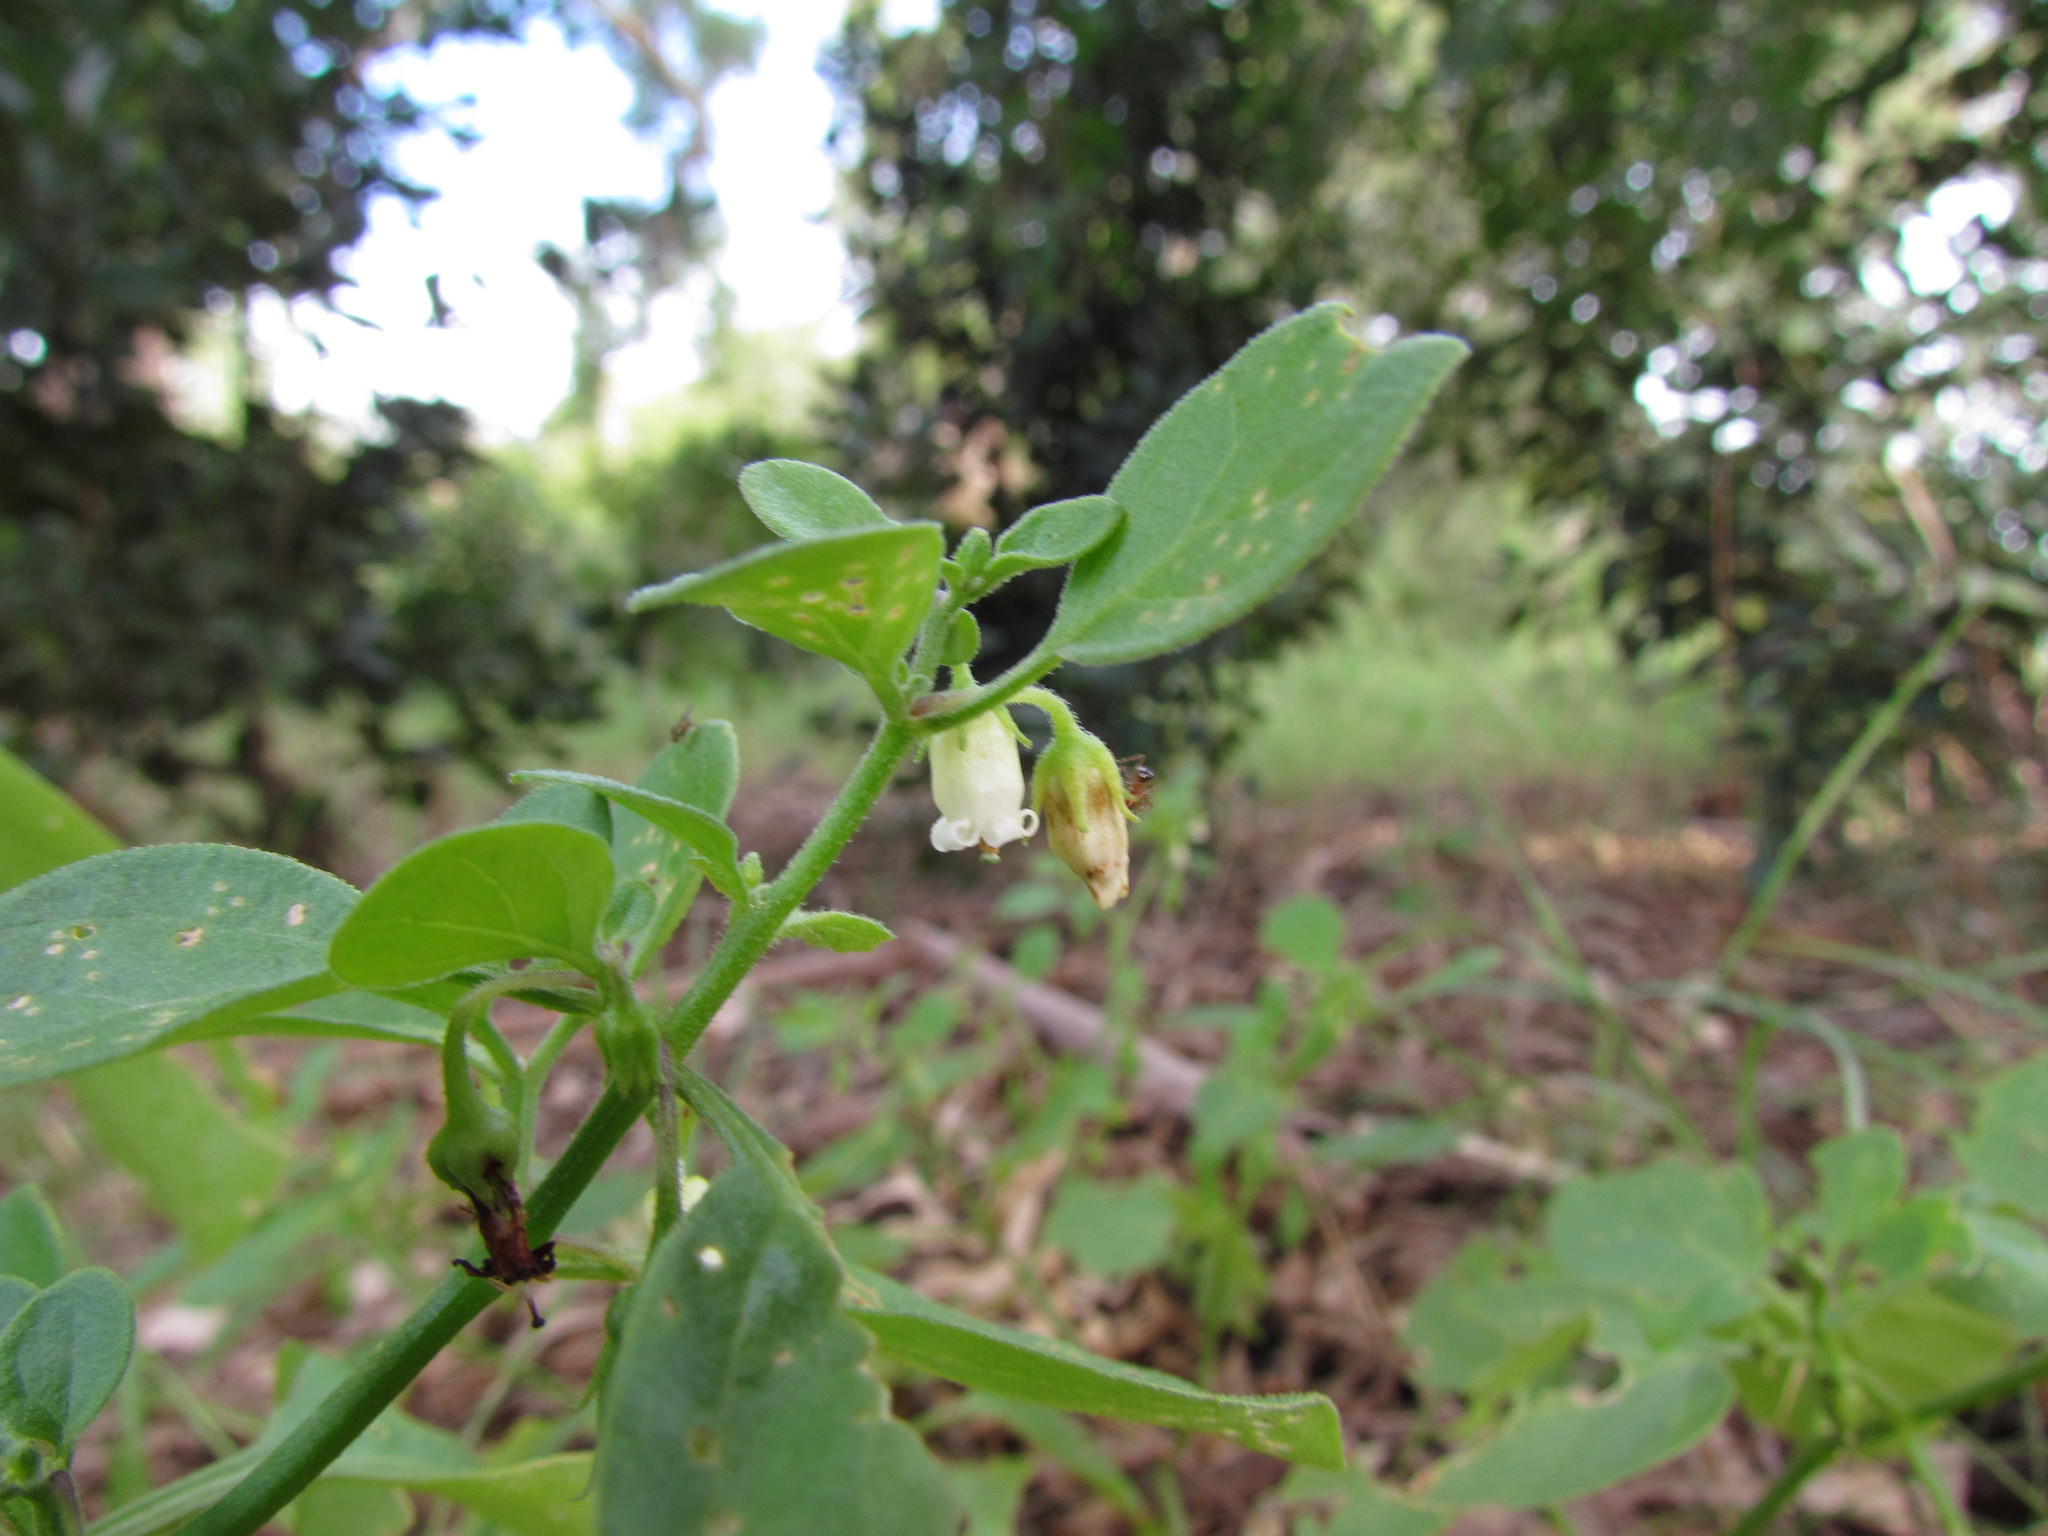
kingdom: Plantae
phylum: Tracheophyta
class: Magnoliopsida
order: Solanales
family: Solanaceae
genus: Salpichroa
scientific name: Salpichroa origanifolia
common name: Lily-of-the-valley-vine
